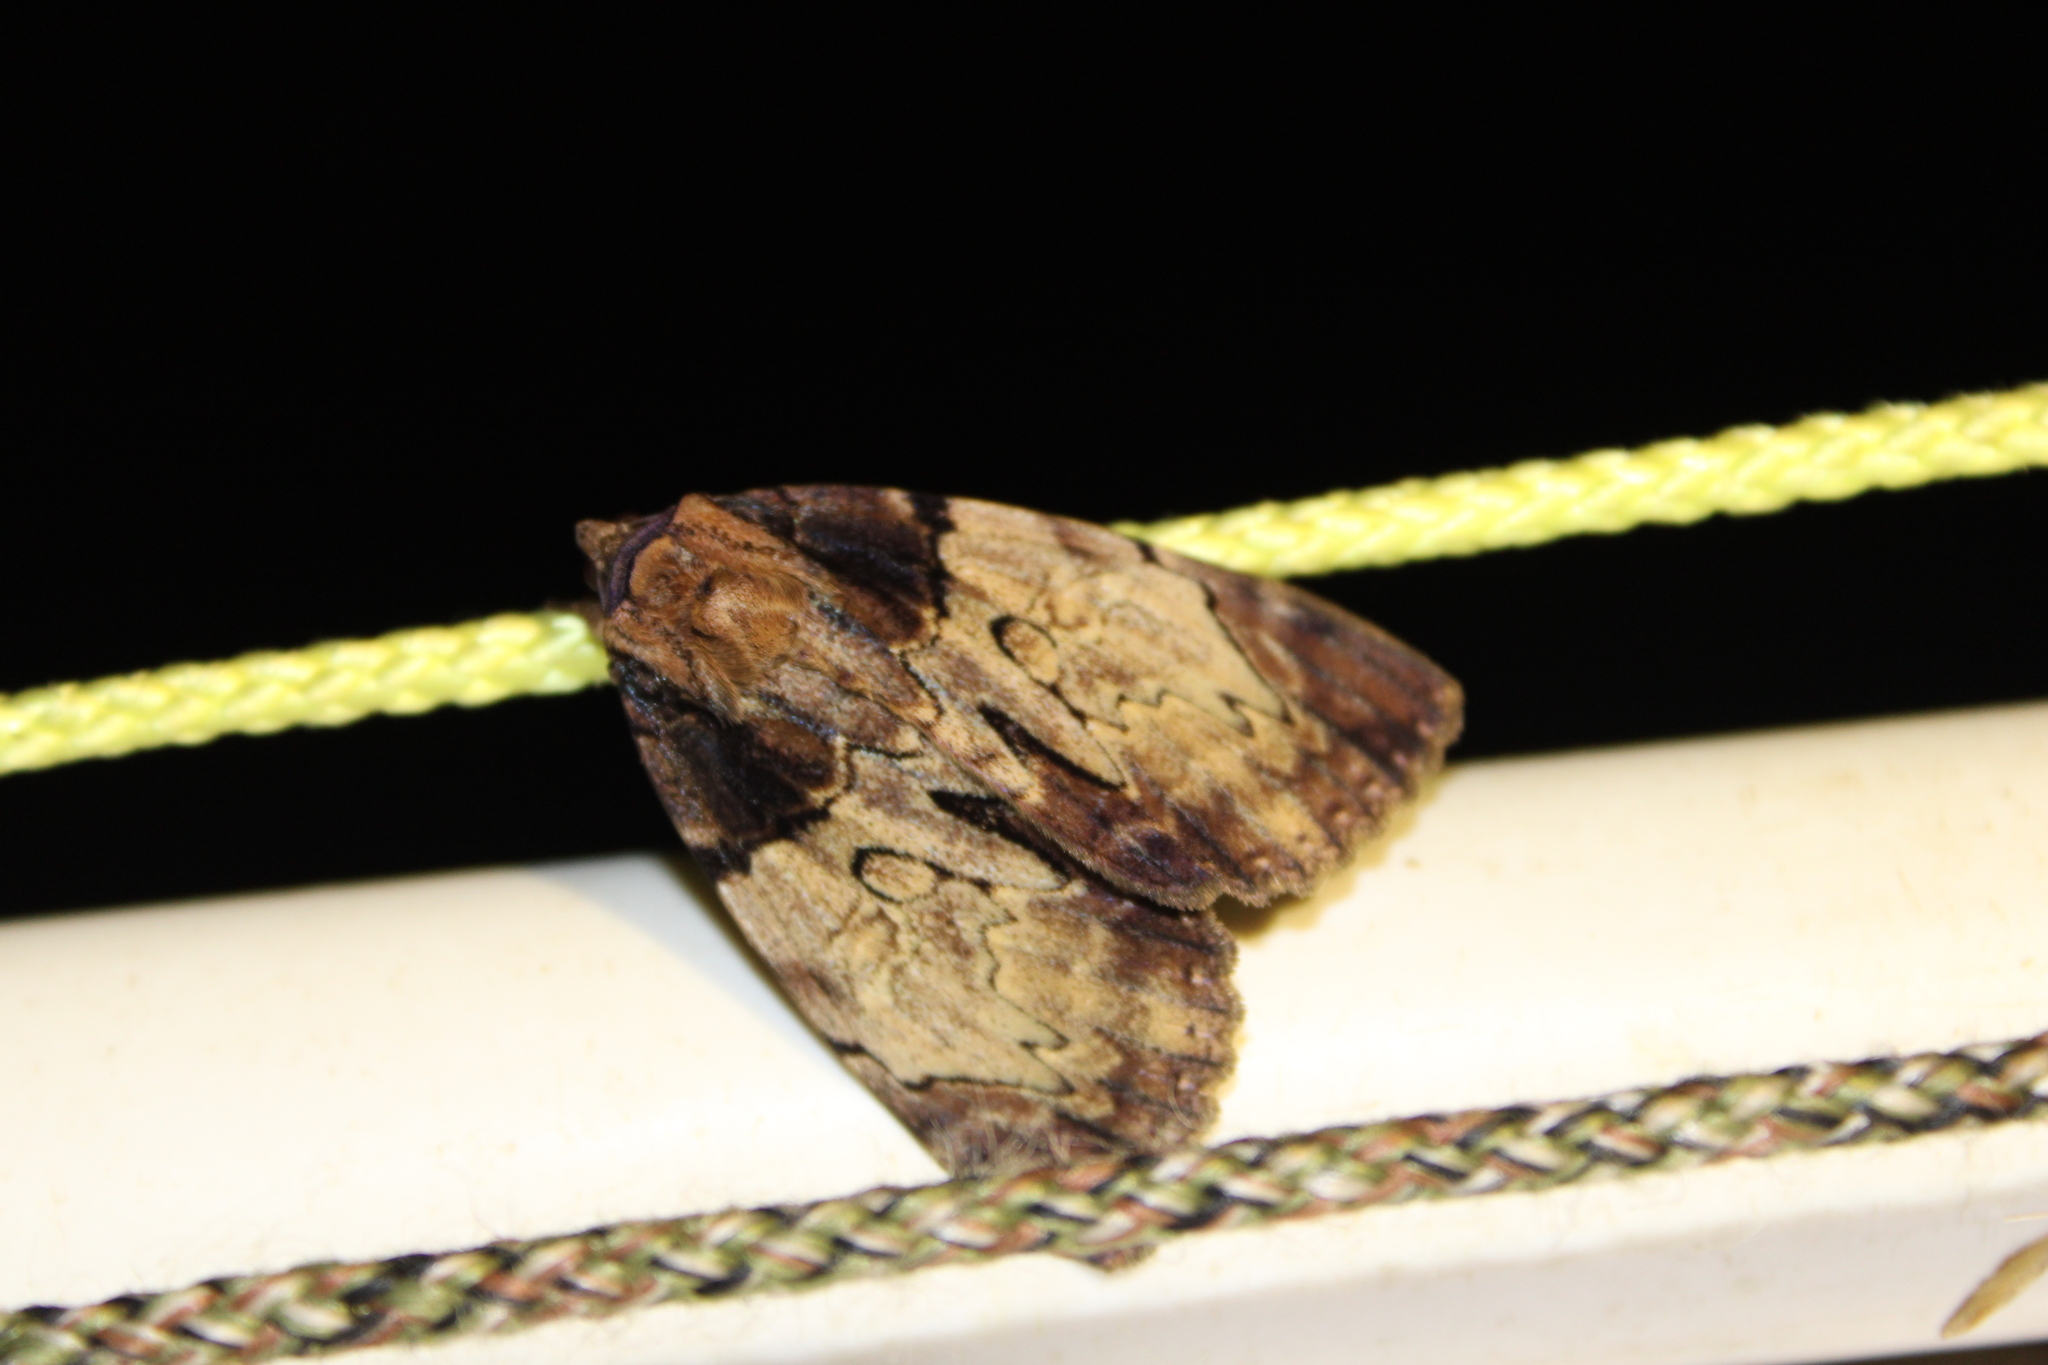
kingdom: Animalia
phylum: Arthropoda
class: Insecta
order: Lepidoptera
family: Erebidae
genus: Catocala
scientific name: Catocala nebulosa
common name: Clouded underwing
